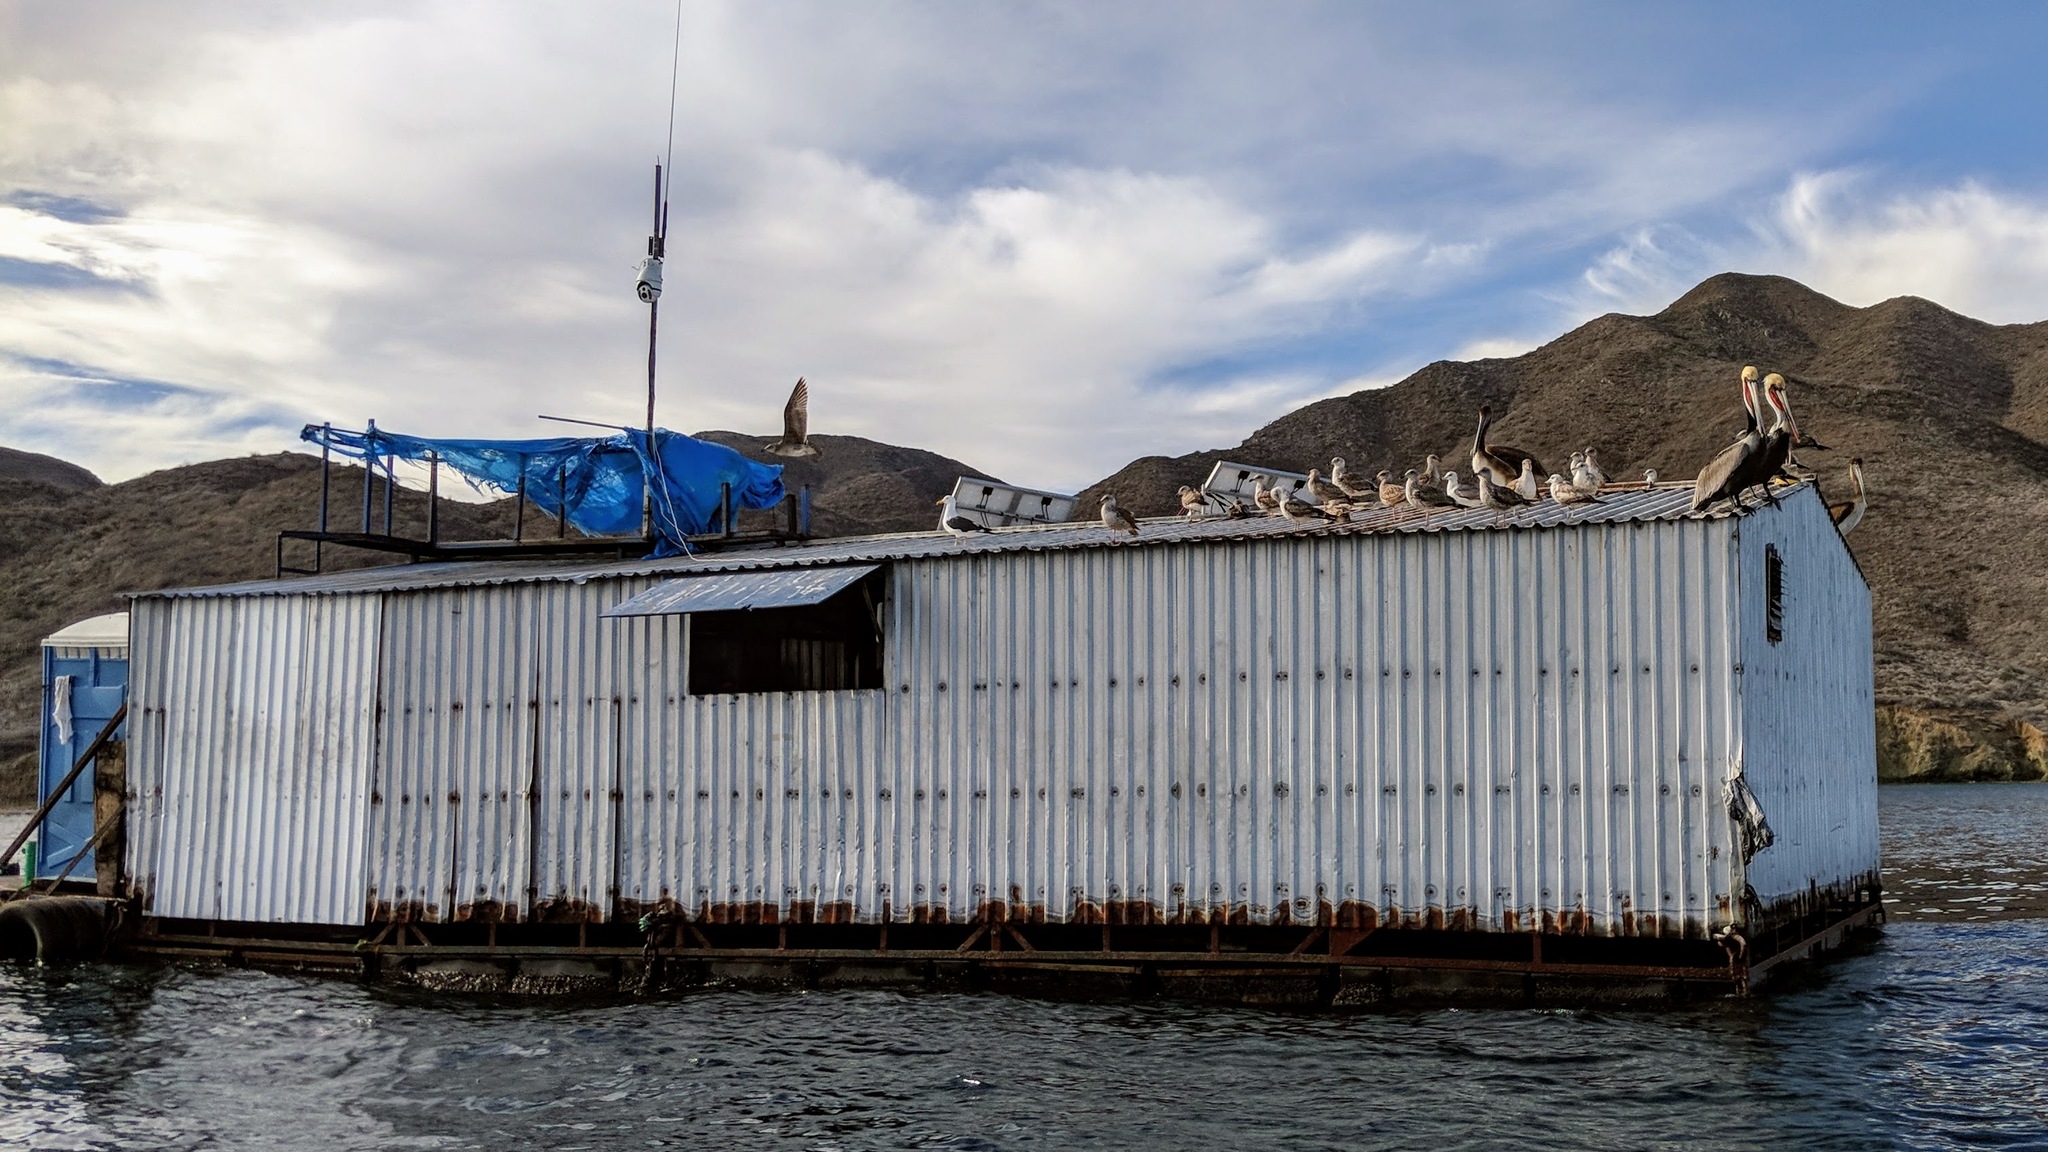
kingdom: Animalia
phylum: Chordata
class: Aves
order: Pelecaniformes
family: Pelecanidae
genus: Pelecanus
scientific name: Pelecanus occidentalis
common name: Brown pelican
